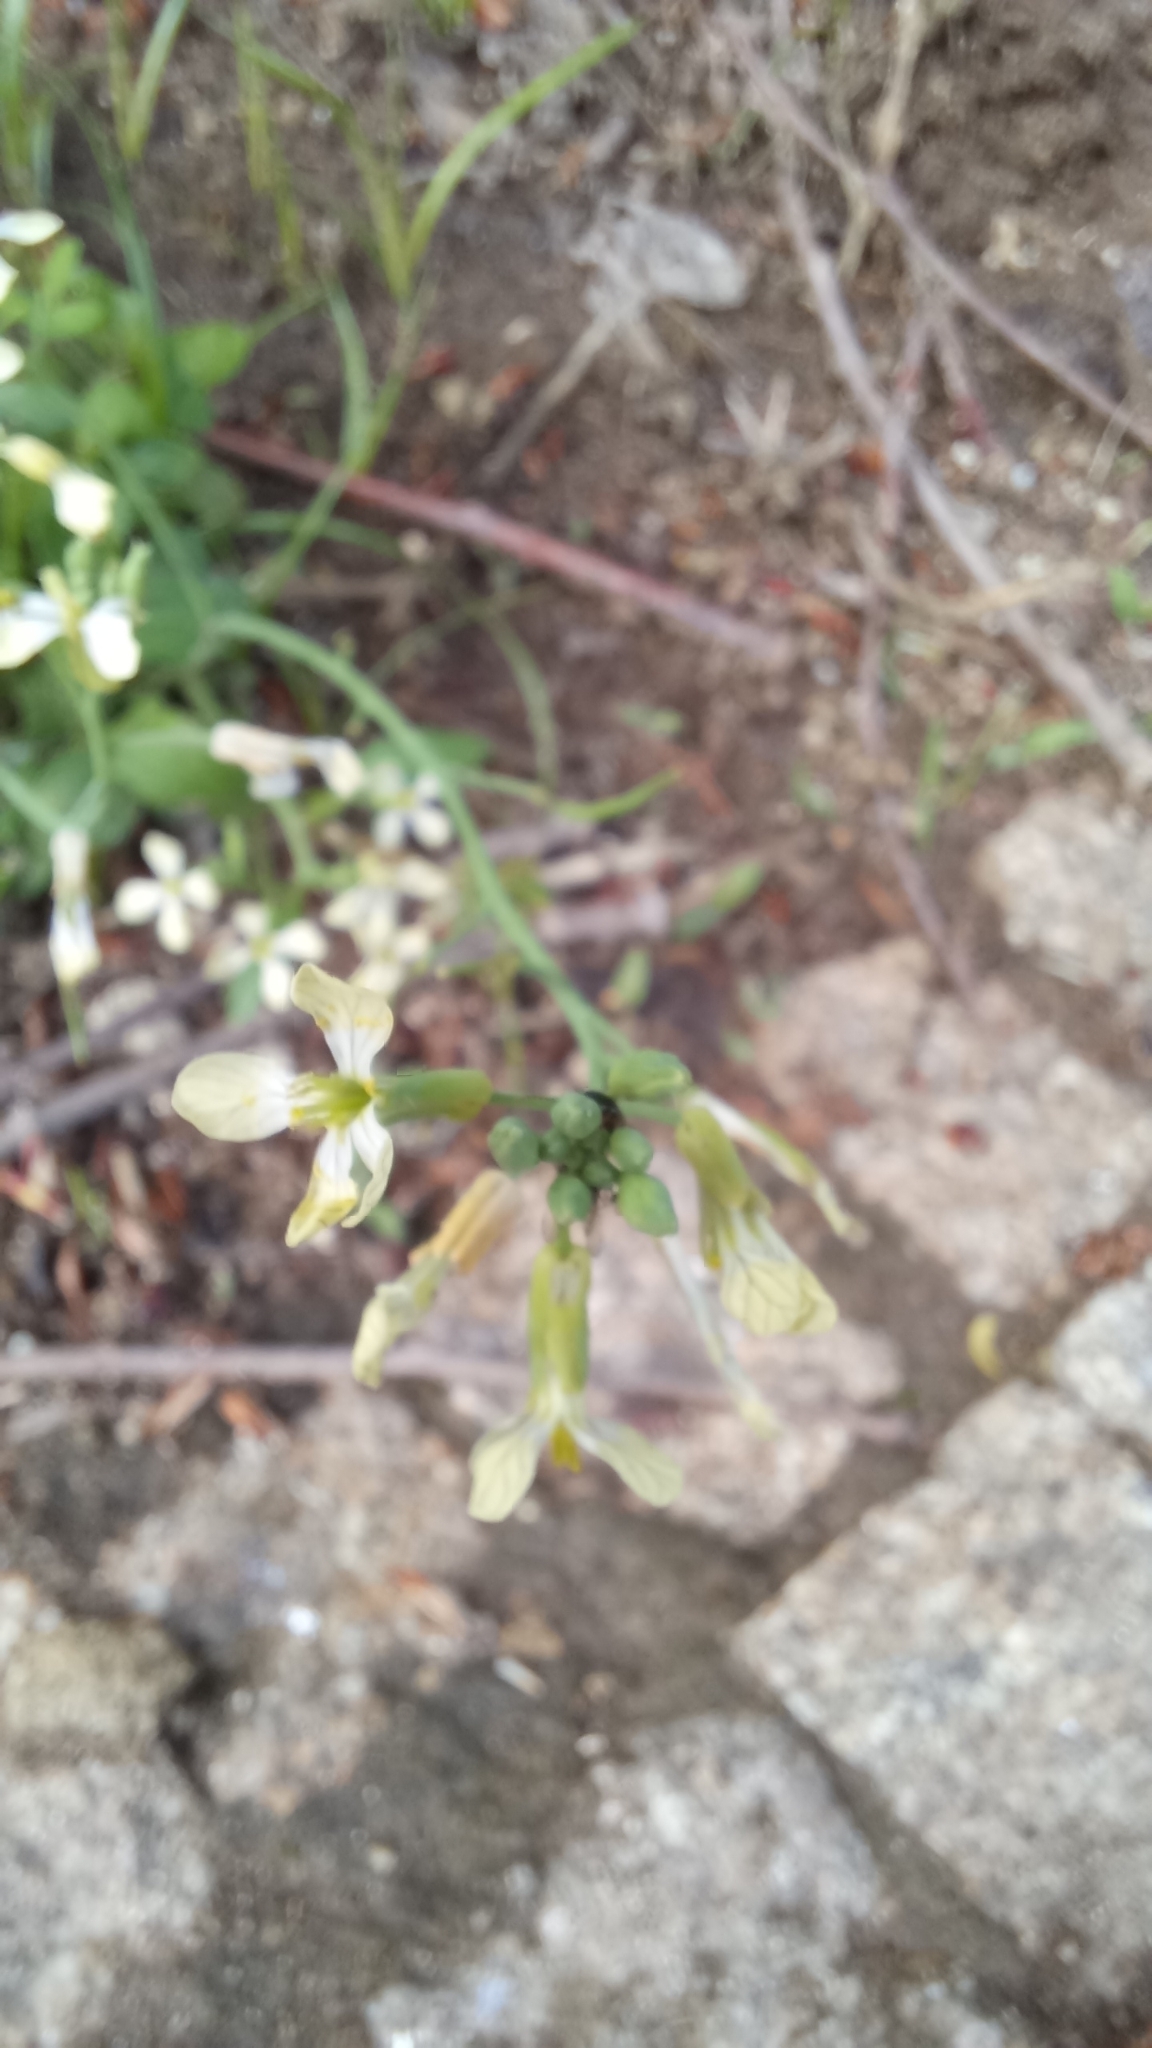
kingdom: Plantae
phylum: Tracheophyta
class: Magnoliopsida
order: Brassicales
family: Brassicaceae
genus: Raphanus
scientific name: Raphanus raphanistrum
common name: Wild radish
